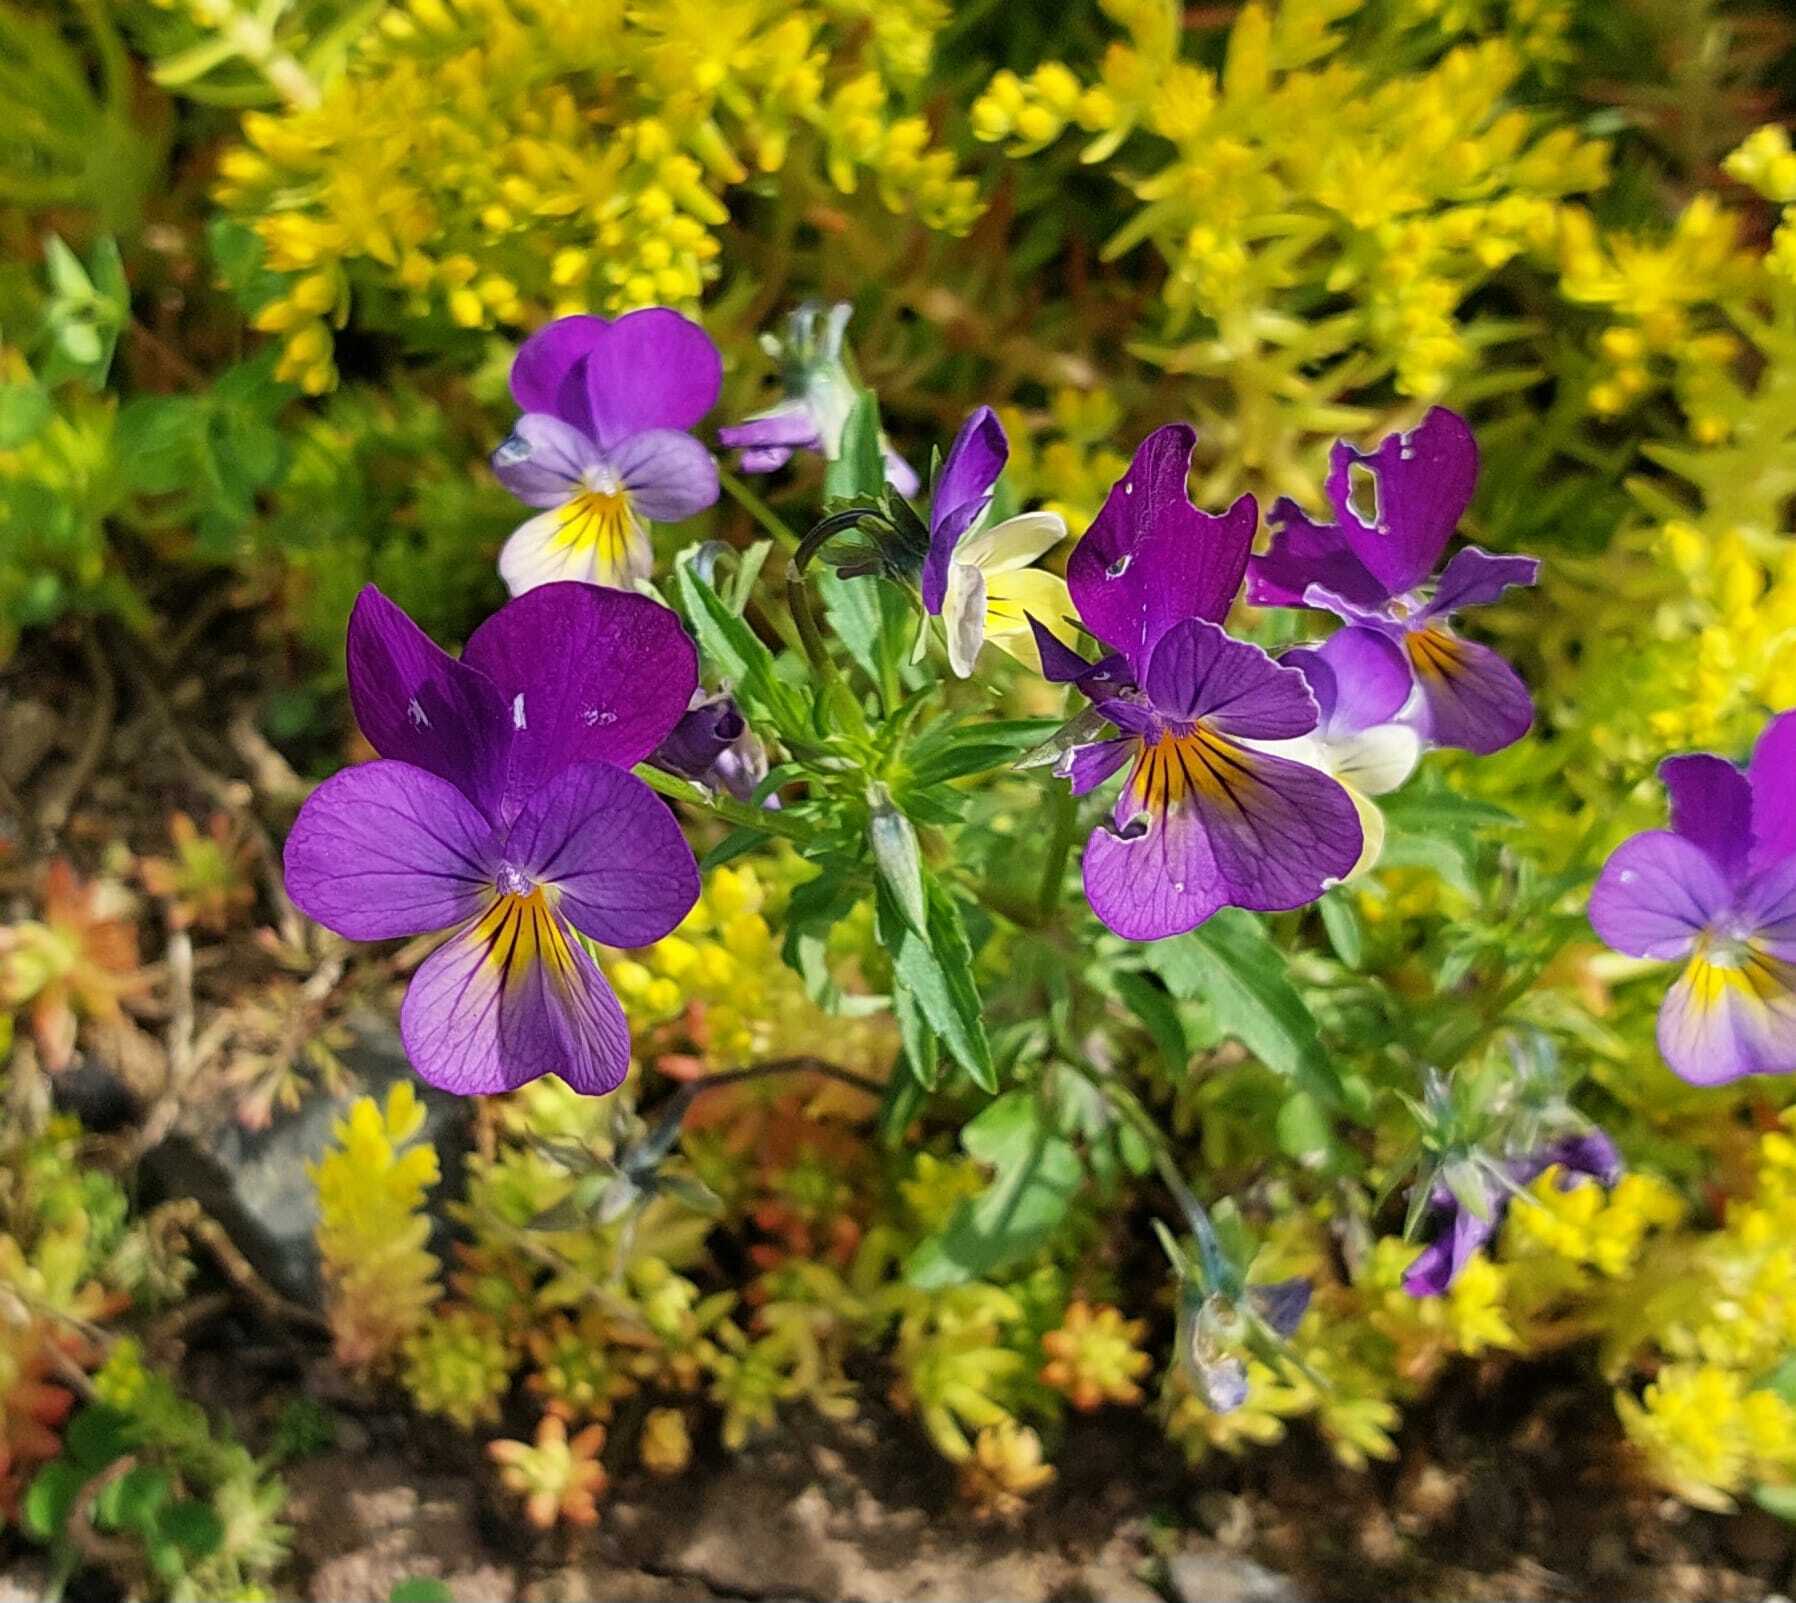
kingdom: Plantae
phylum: Tracheophyta
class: Magnoliopsida
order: Malpighiales
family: Violaceae
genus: Viola
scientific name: Viola williamsii
